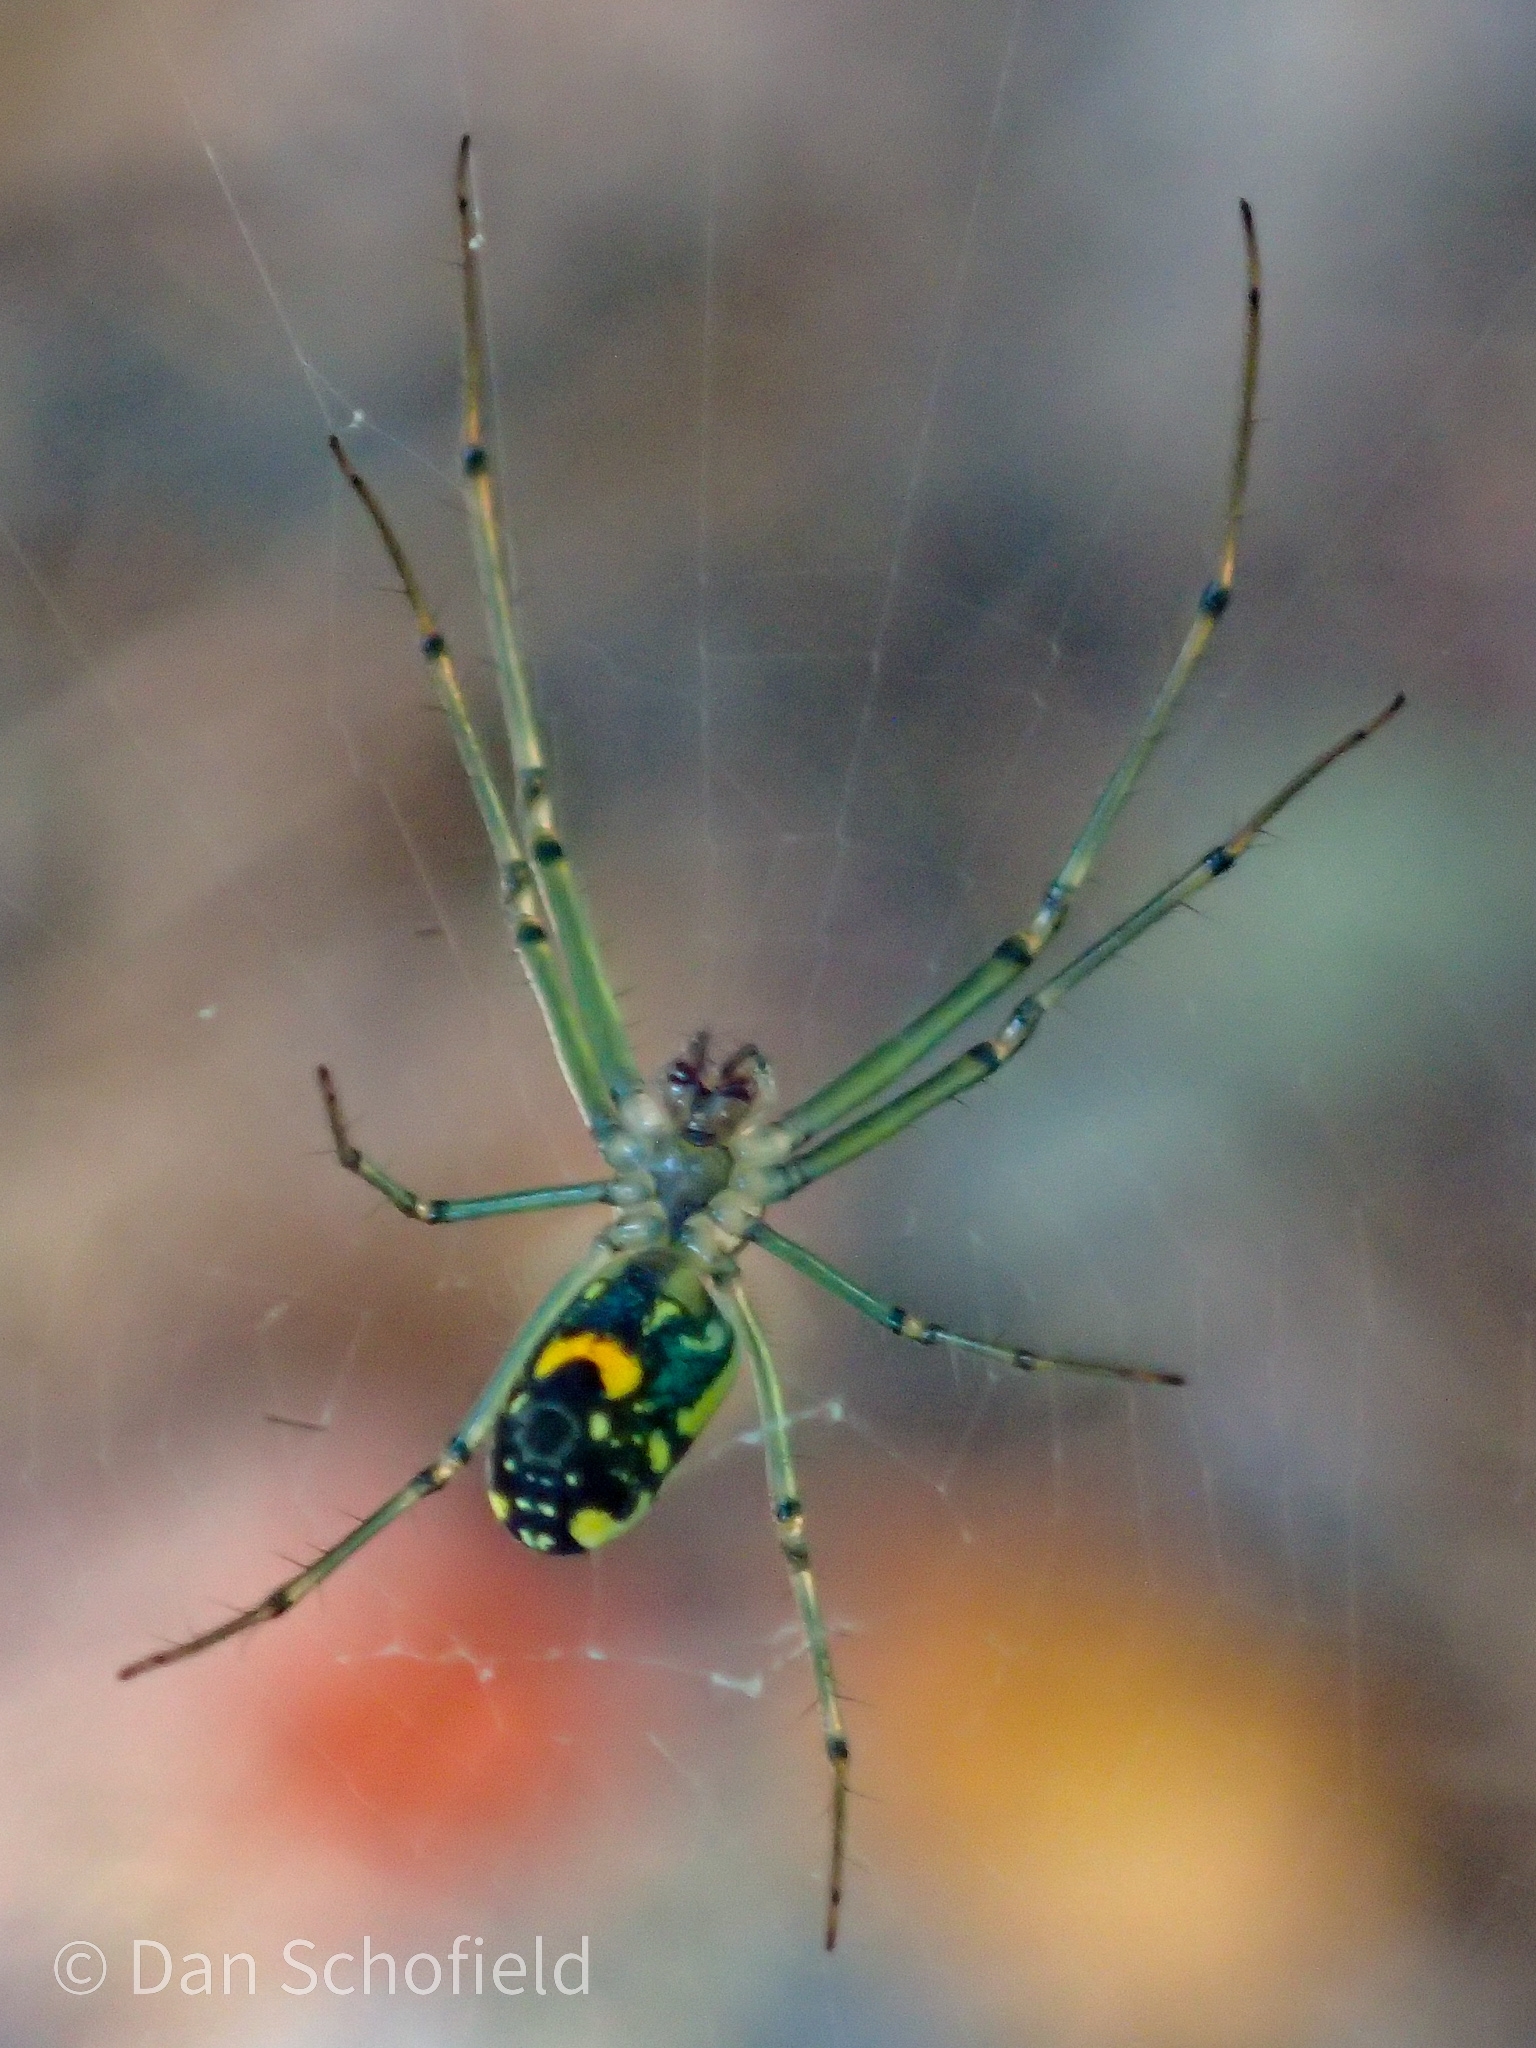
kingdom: Animalia
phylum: Arthropoda
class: Arachnida
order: Araneae
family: Tetragnathidae
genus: Leucauge
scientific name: Leucauge argyrobapta
